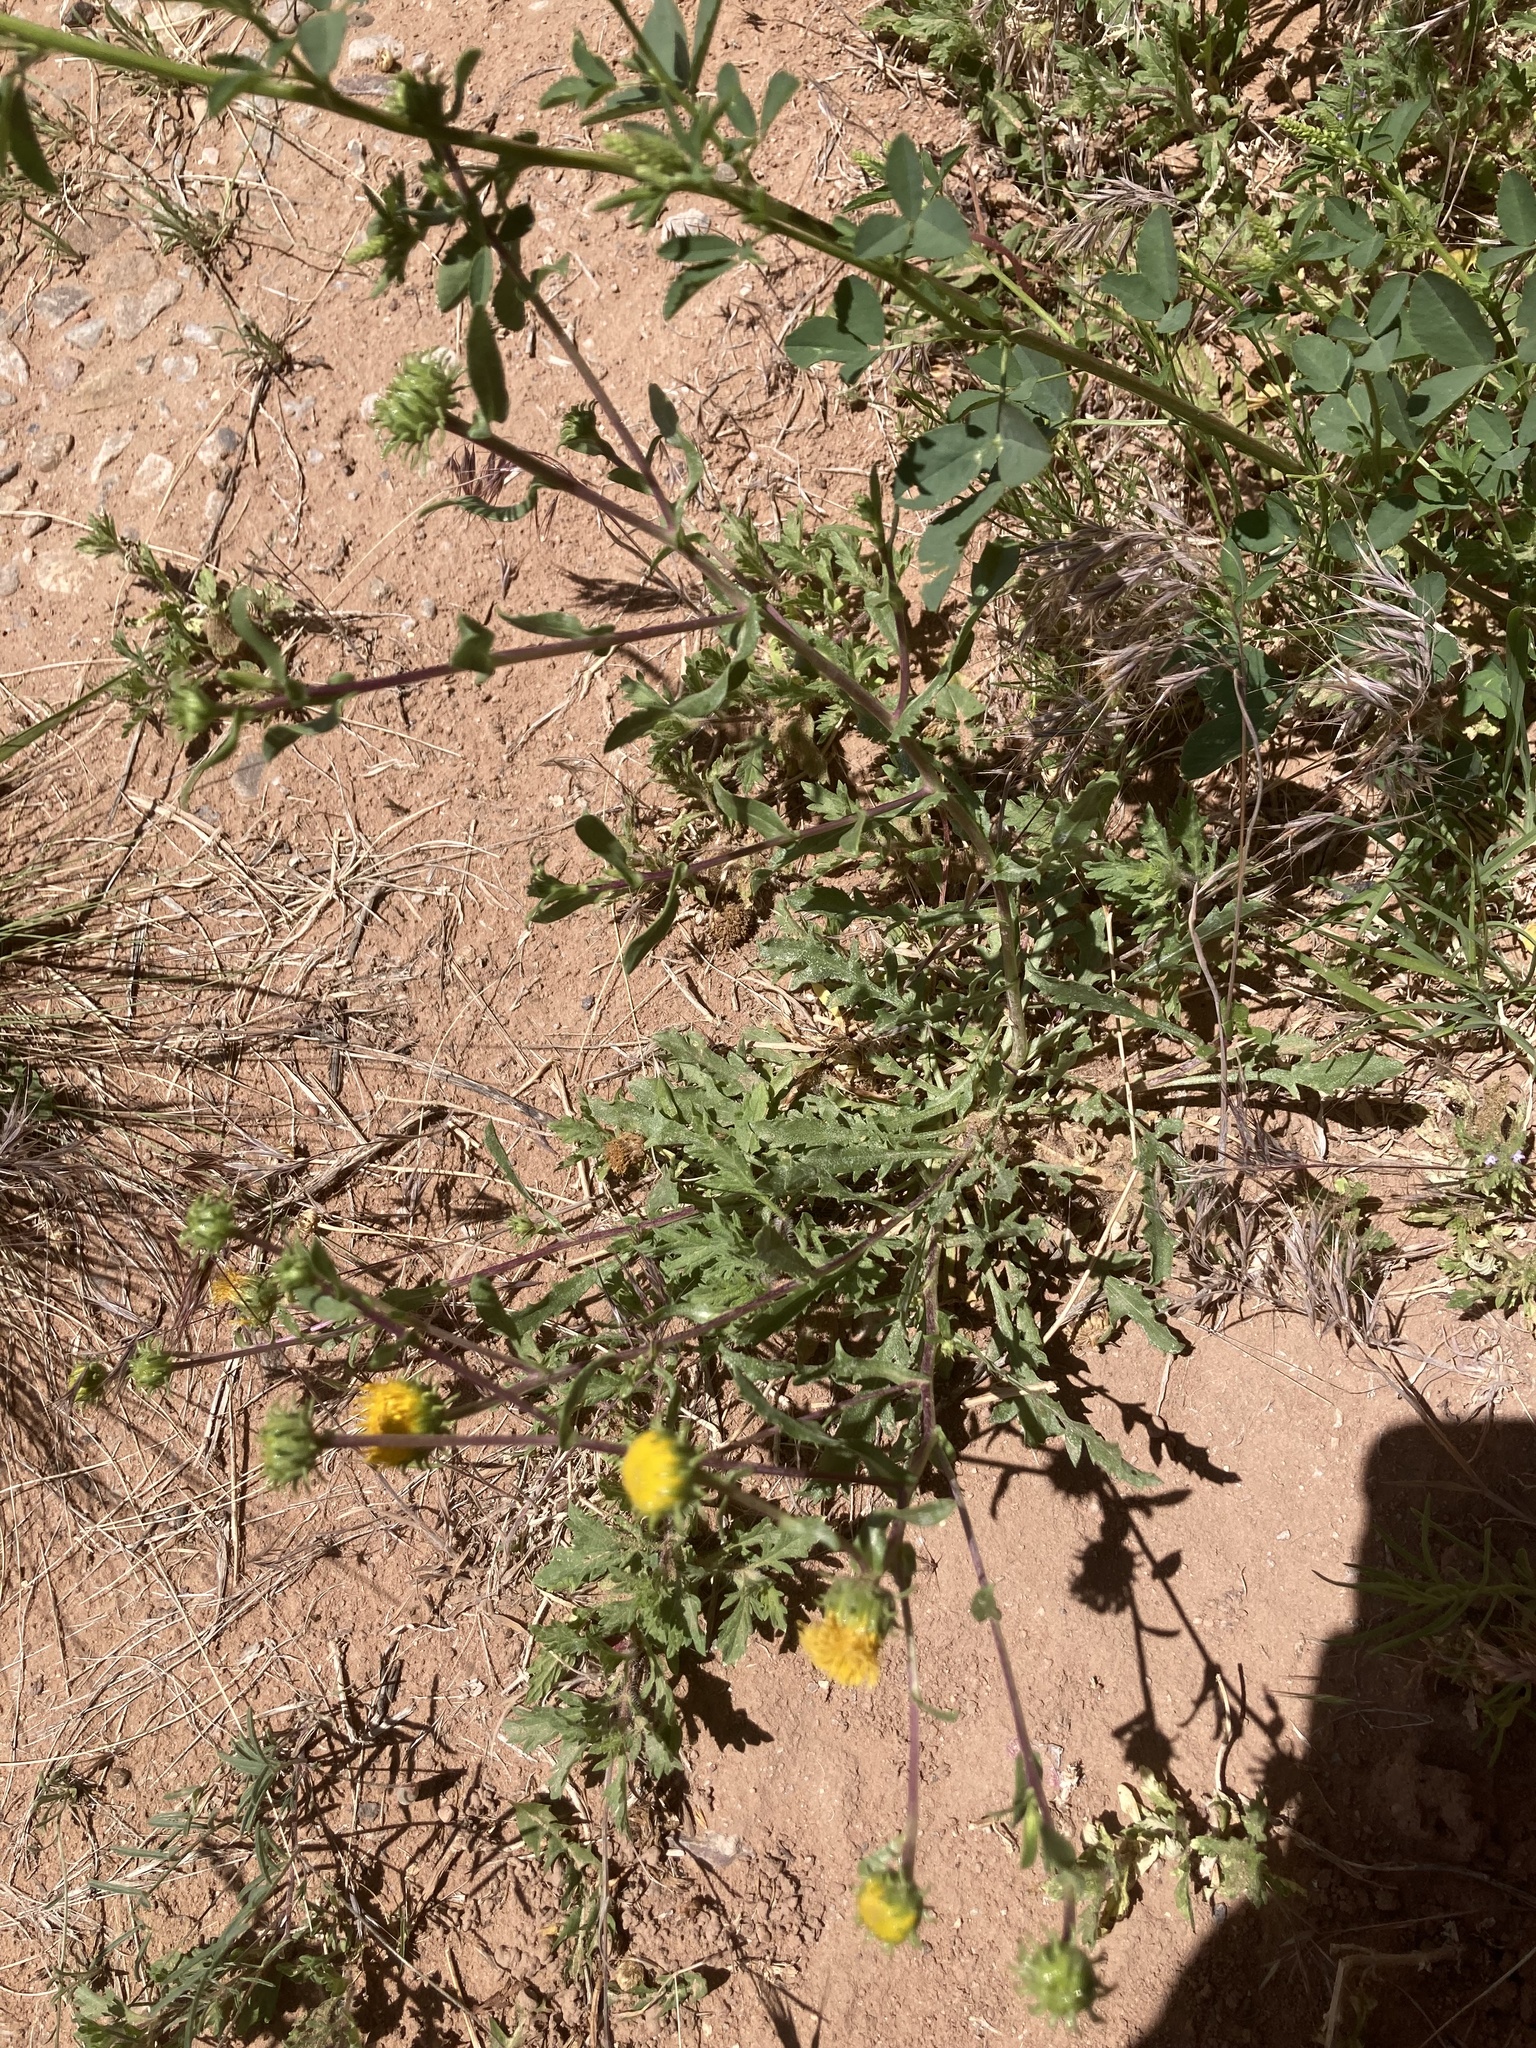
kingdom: Plantae
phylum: Tracheophyta
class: Magnoliopsida
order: Asterales
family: Asteraceae
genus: Grindelia
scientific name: Grindelia nuda
